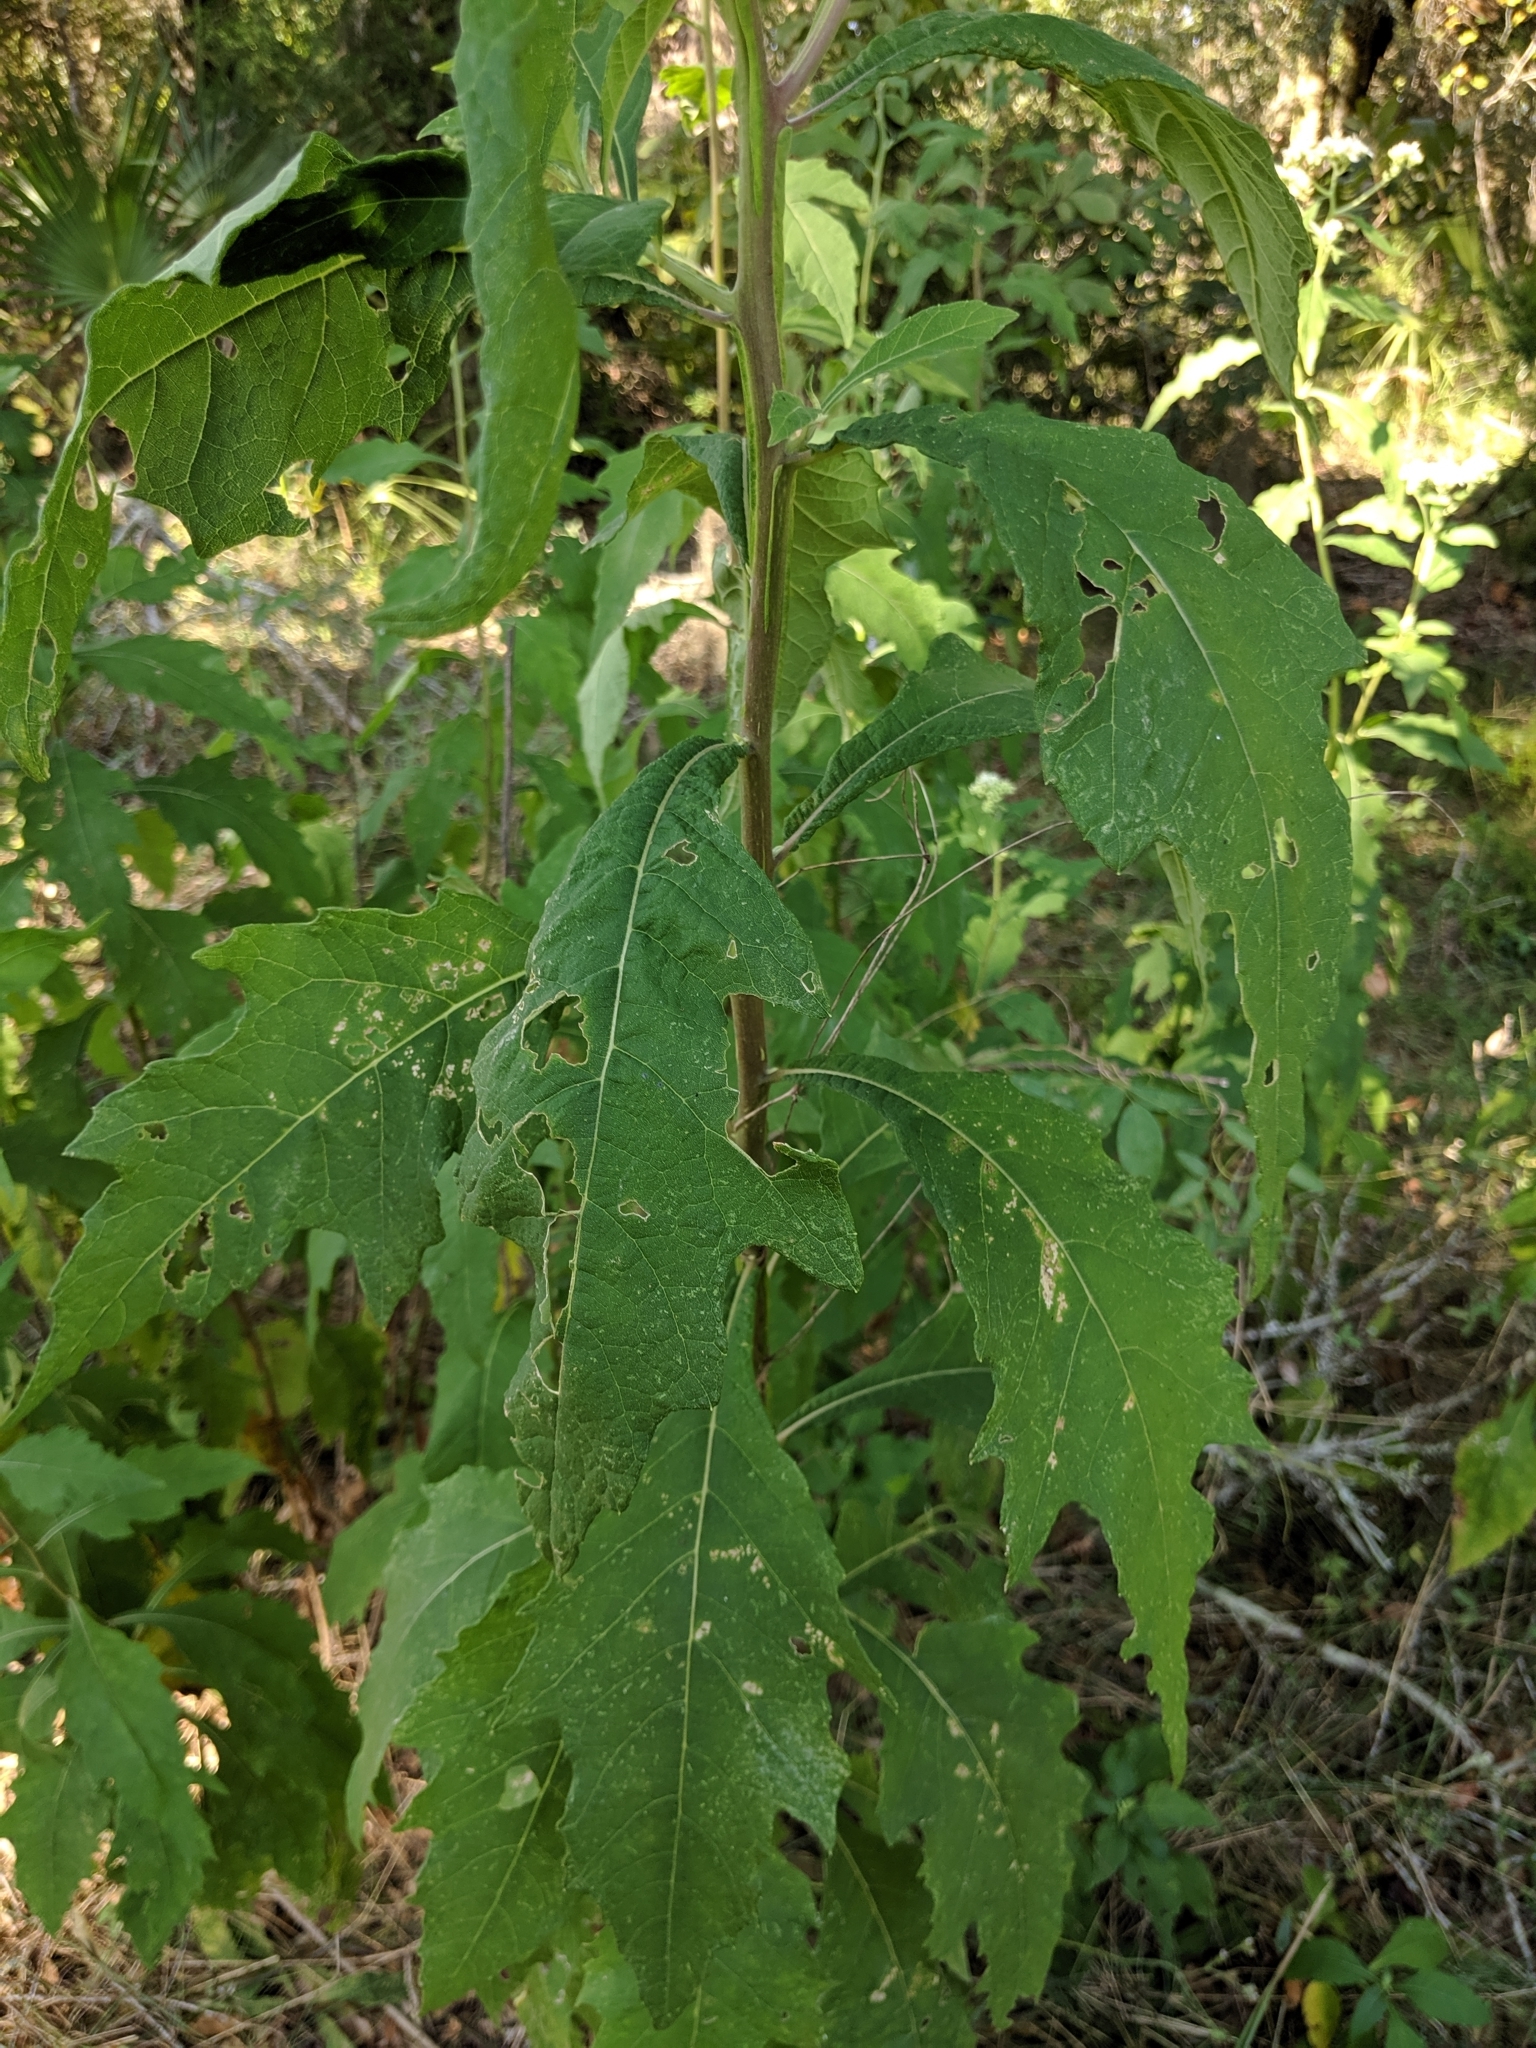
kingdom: Plantae
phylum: Tracheophyta
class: Magnoliopsida
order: Asterales
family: Asteraceae
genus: Verbesina
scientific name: Verbesina virginica
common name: Frostweed
